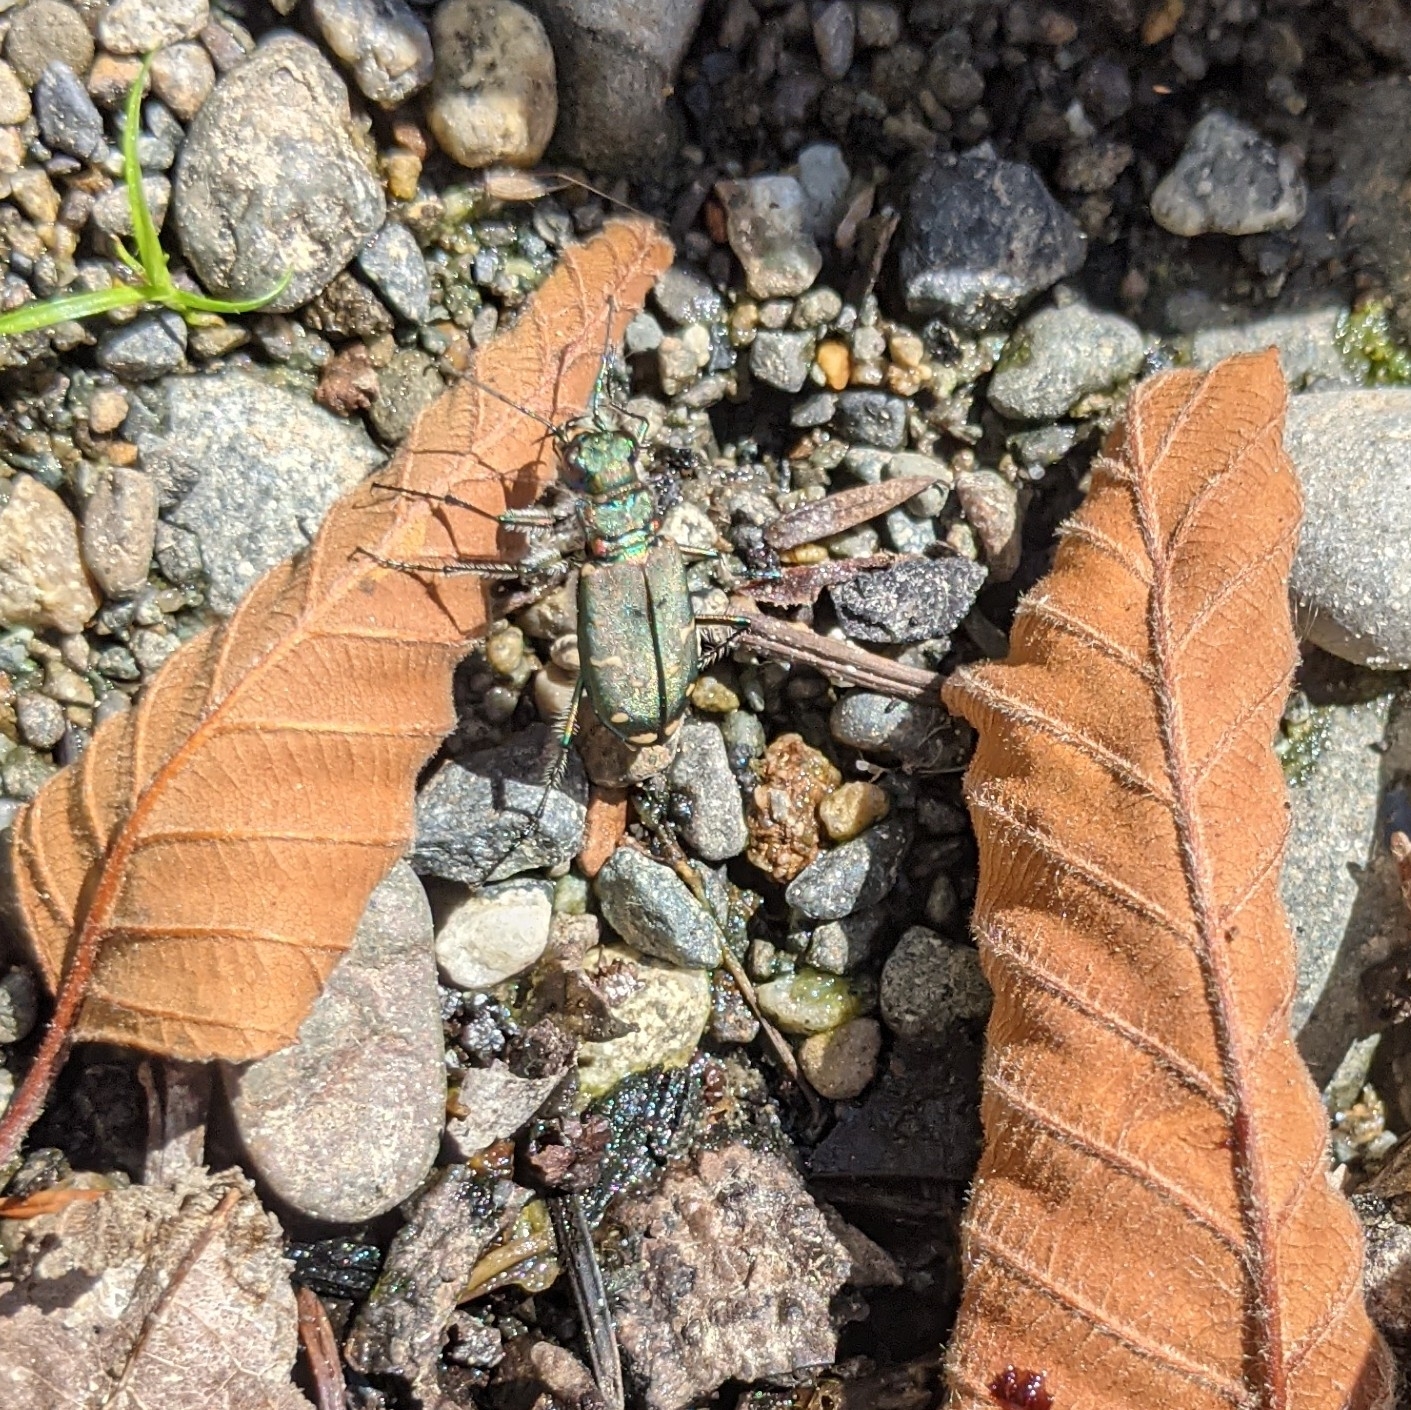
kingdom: Animalia
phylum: Arthropoda
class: Insecta
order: Coleoptera
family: Carabidae
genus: Cicindela
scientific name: Cicindela oregona
